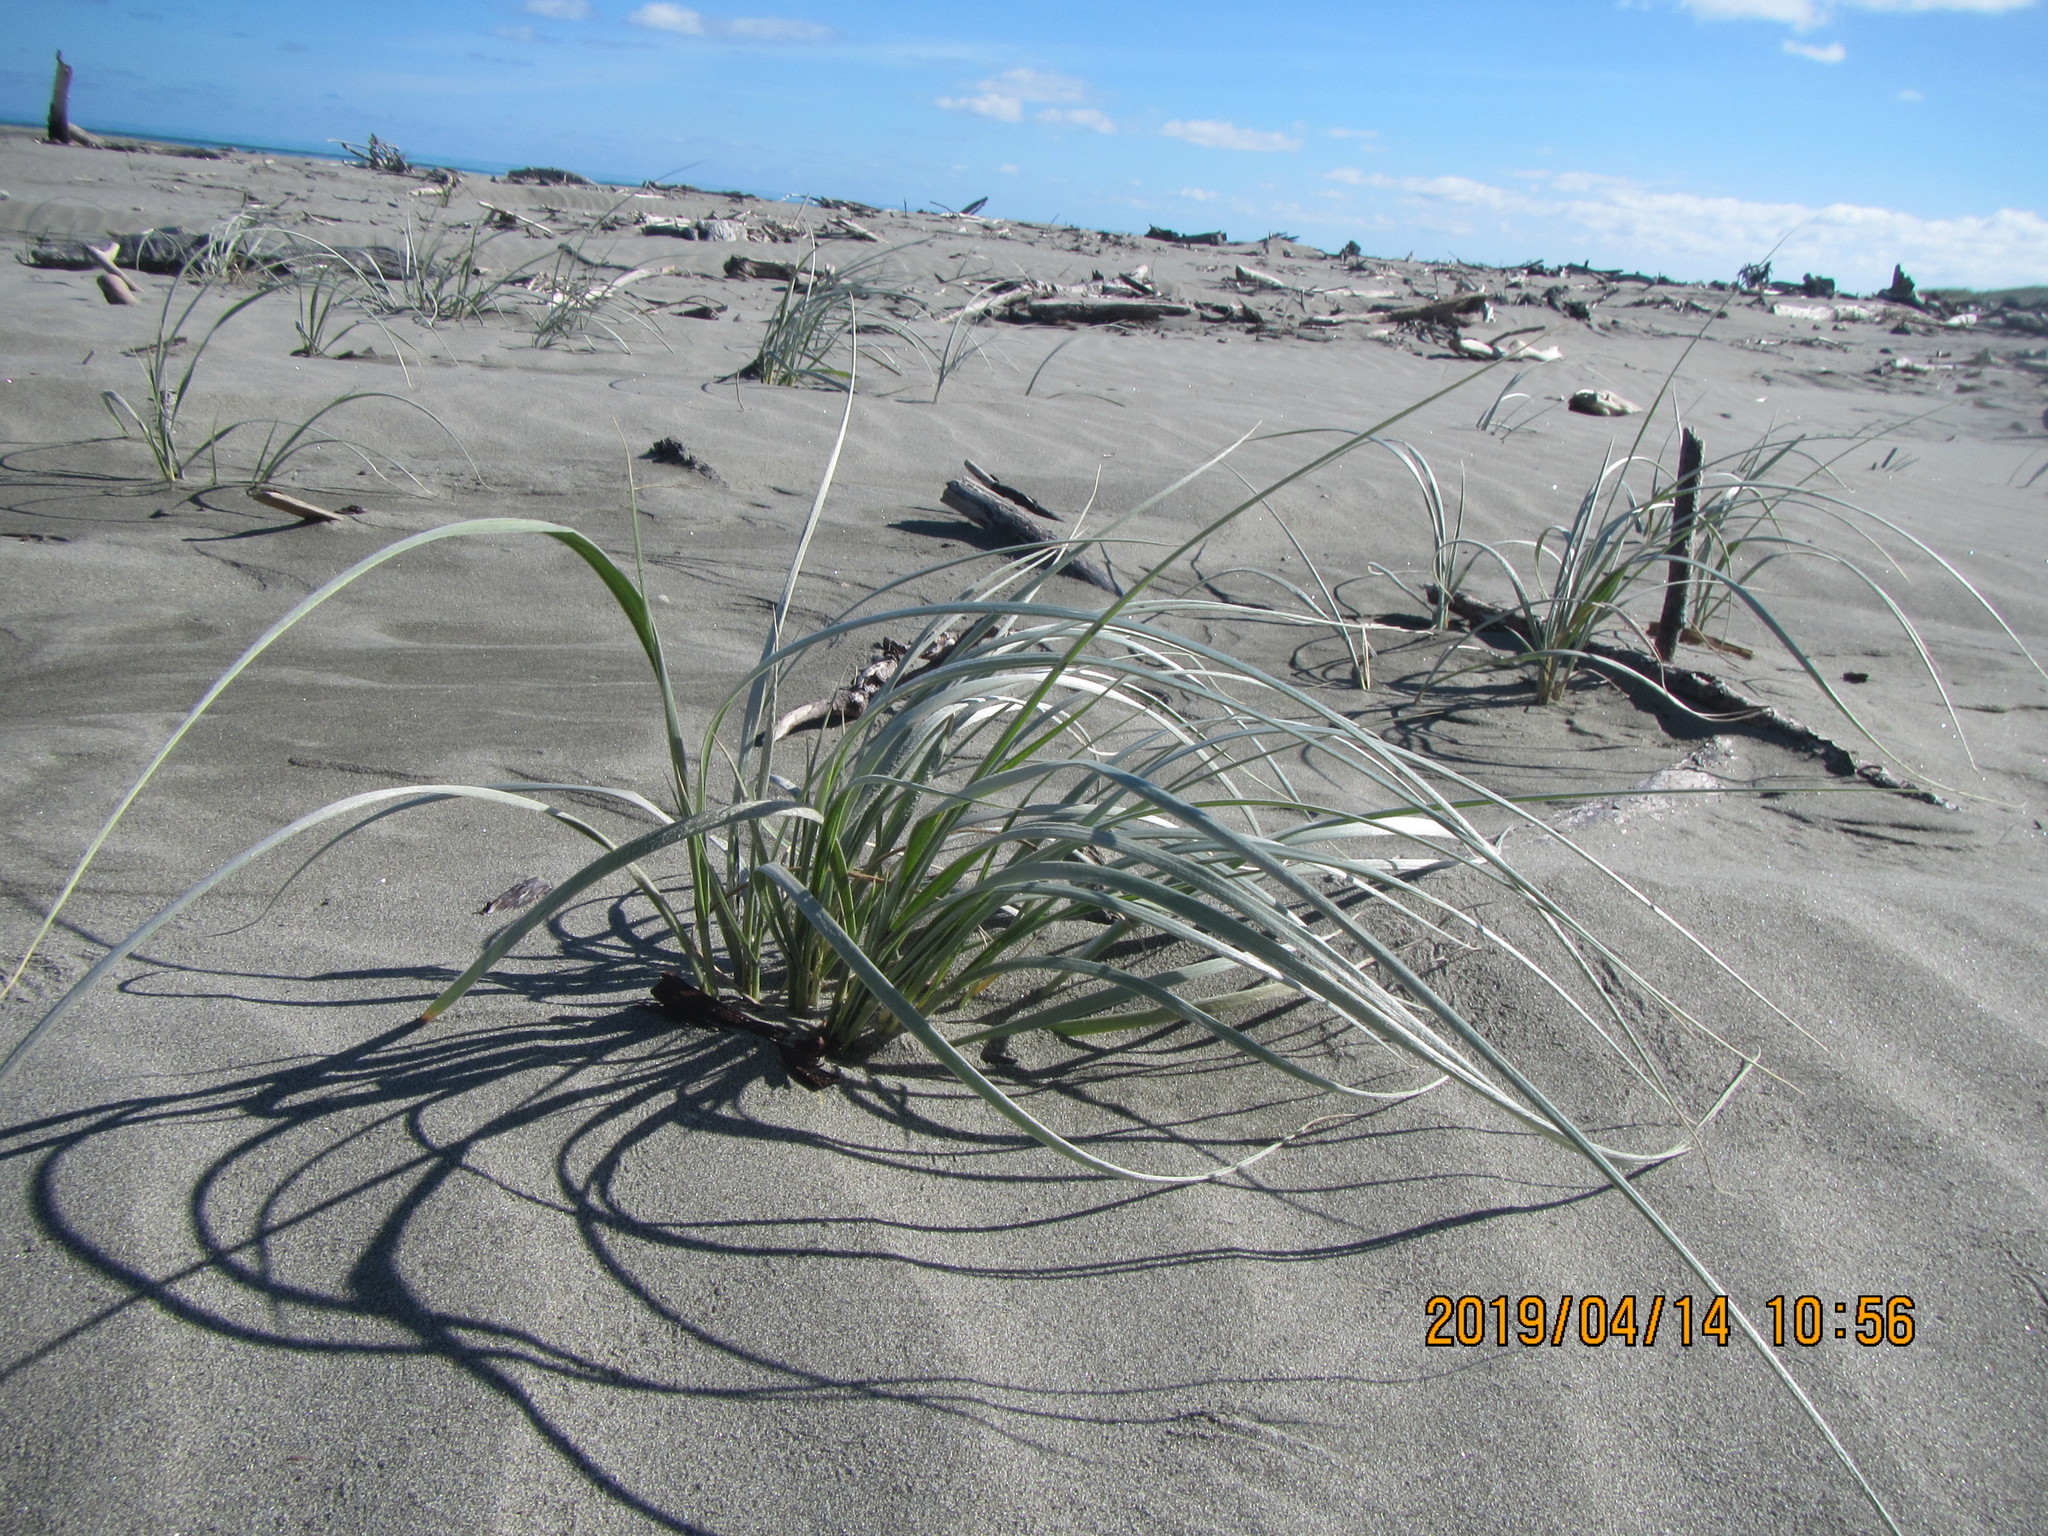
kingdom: Plantae
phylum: Tracheophyta
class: Liliopsida
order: Poales
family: Poaceae
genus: Spinifex
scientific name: Spinifex sericeus
